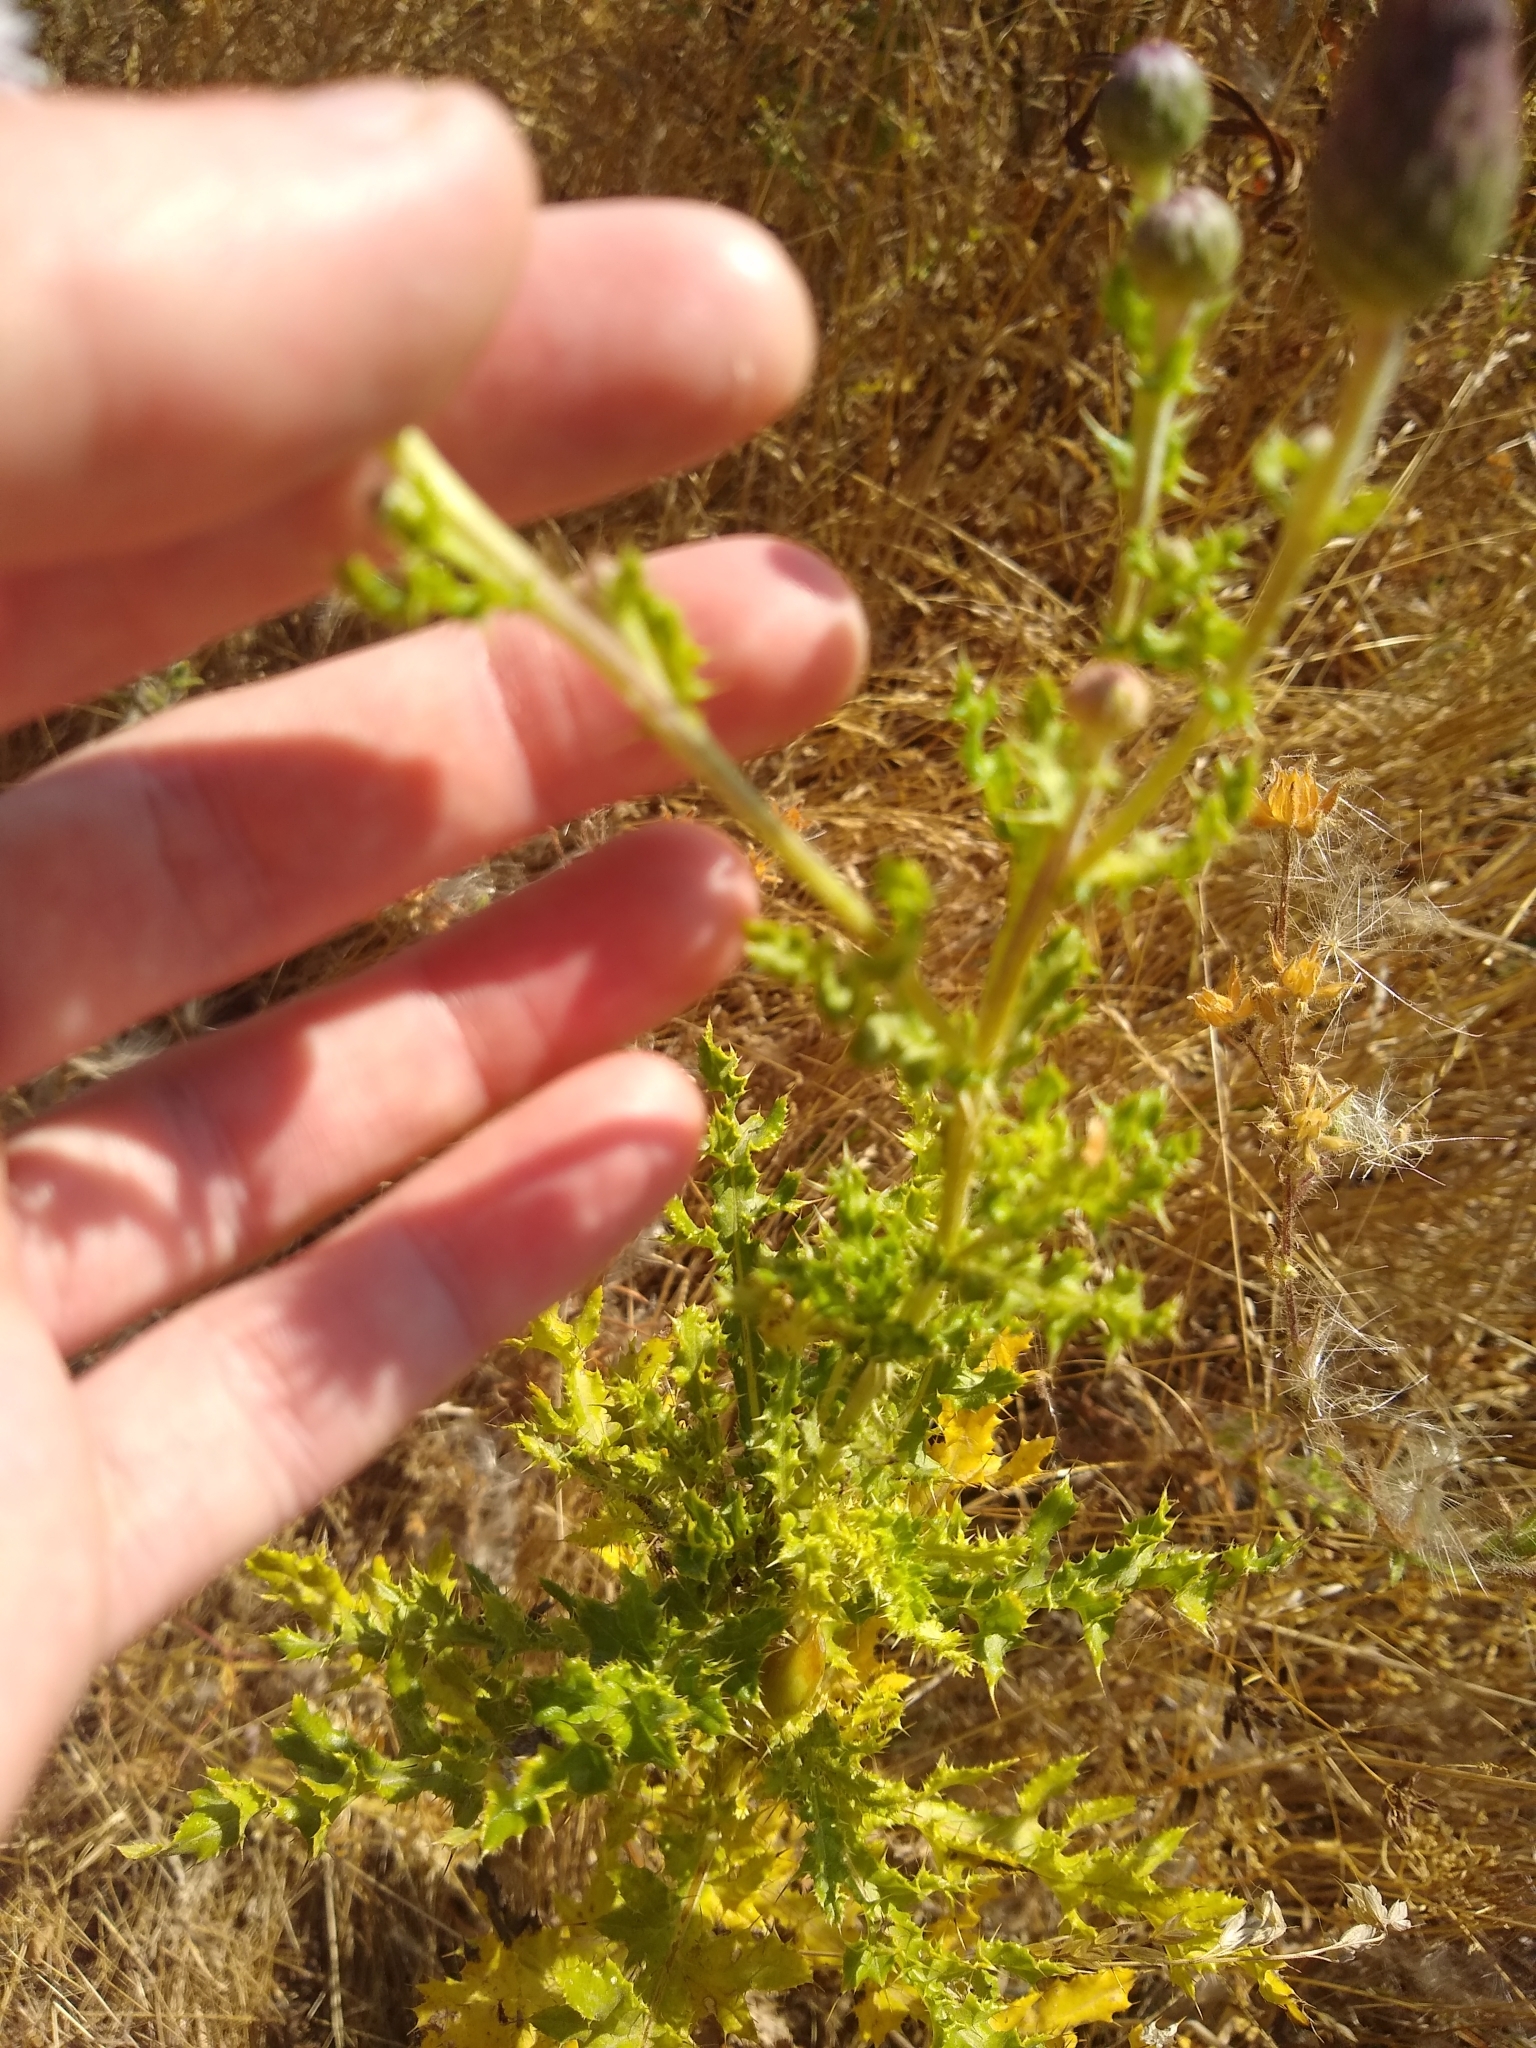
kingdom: Plantae
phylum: Tracheophyta
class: Magnoliopsida
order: Asterales
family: Asteraceae
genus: Cirsium
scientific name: Cirsium arvense
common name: Creeping thistle
